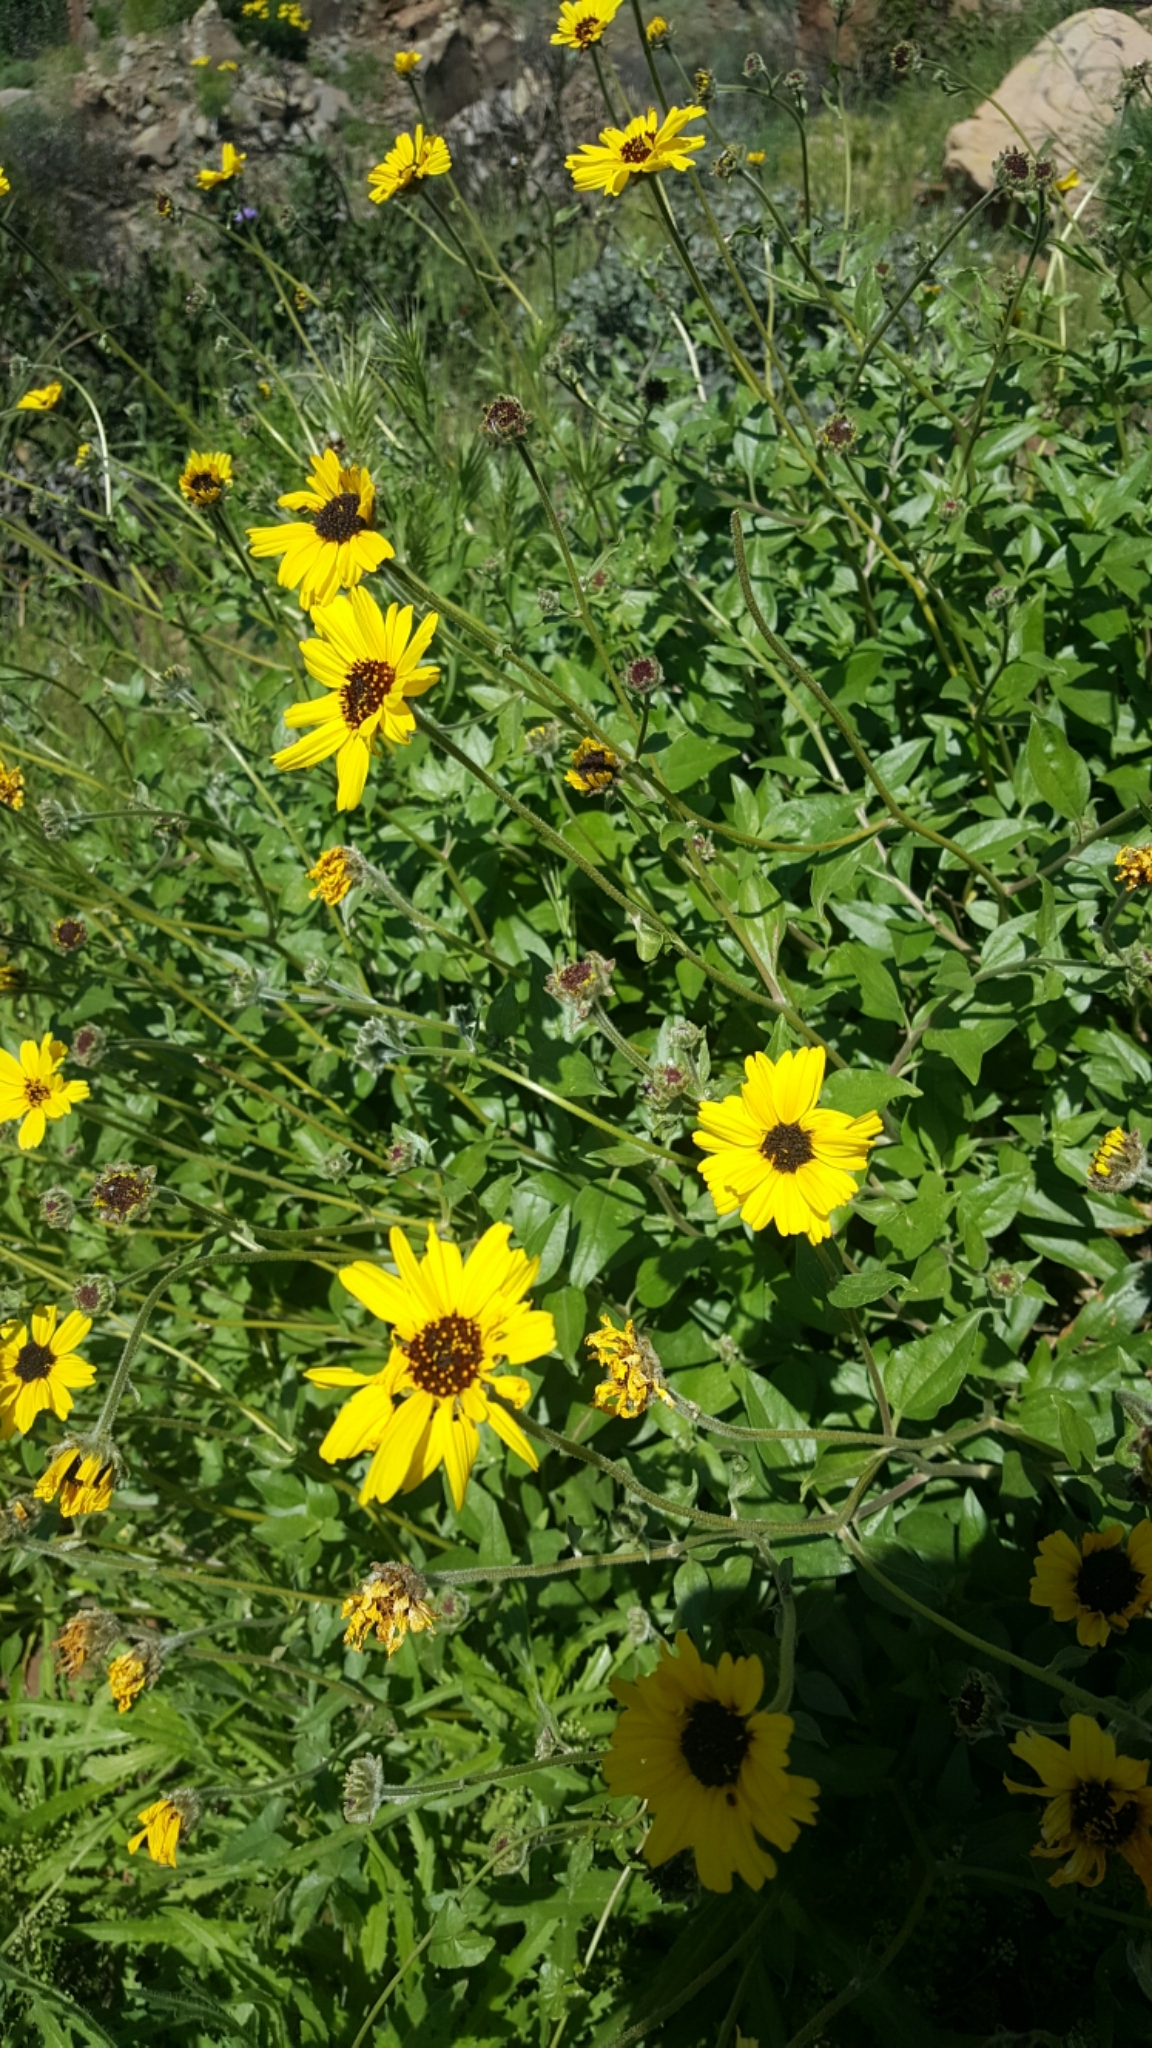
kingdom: Plantae
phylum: Tracheophyta
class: Magnoliopsida
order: Asterales
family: Asteraceae
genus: Encelia
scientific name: Encelia californica
